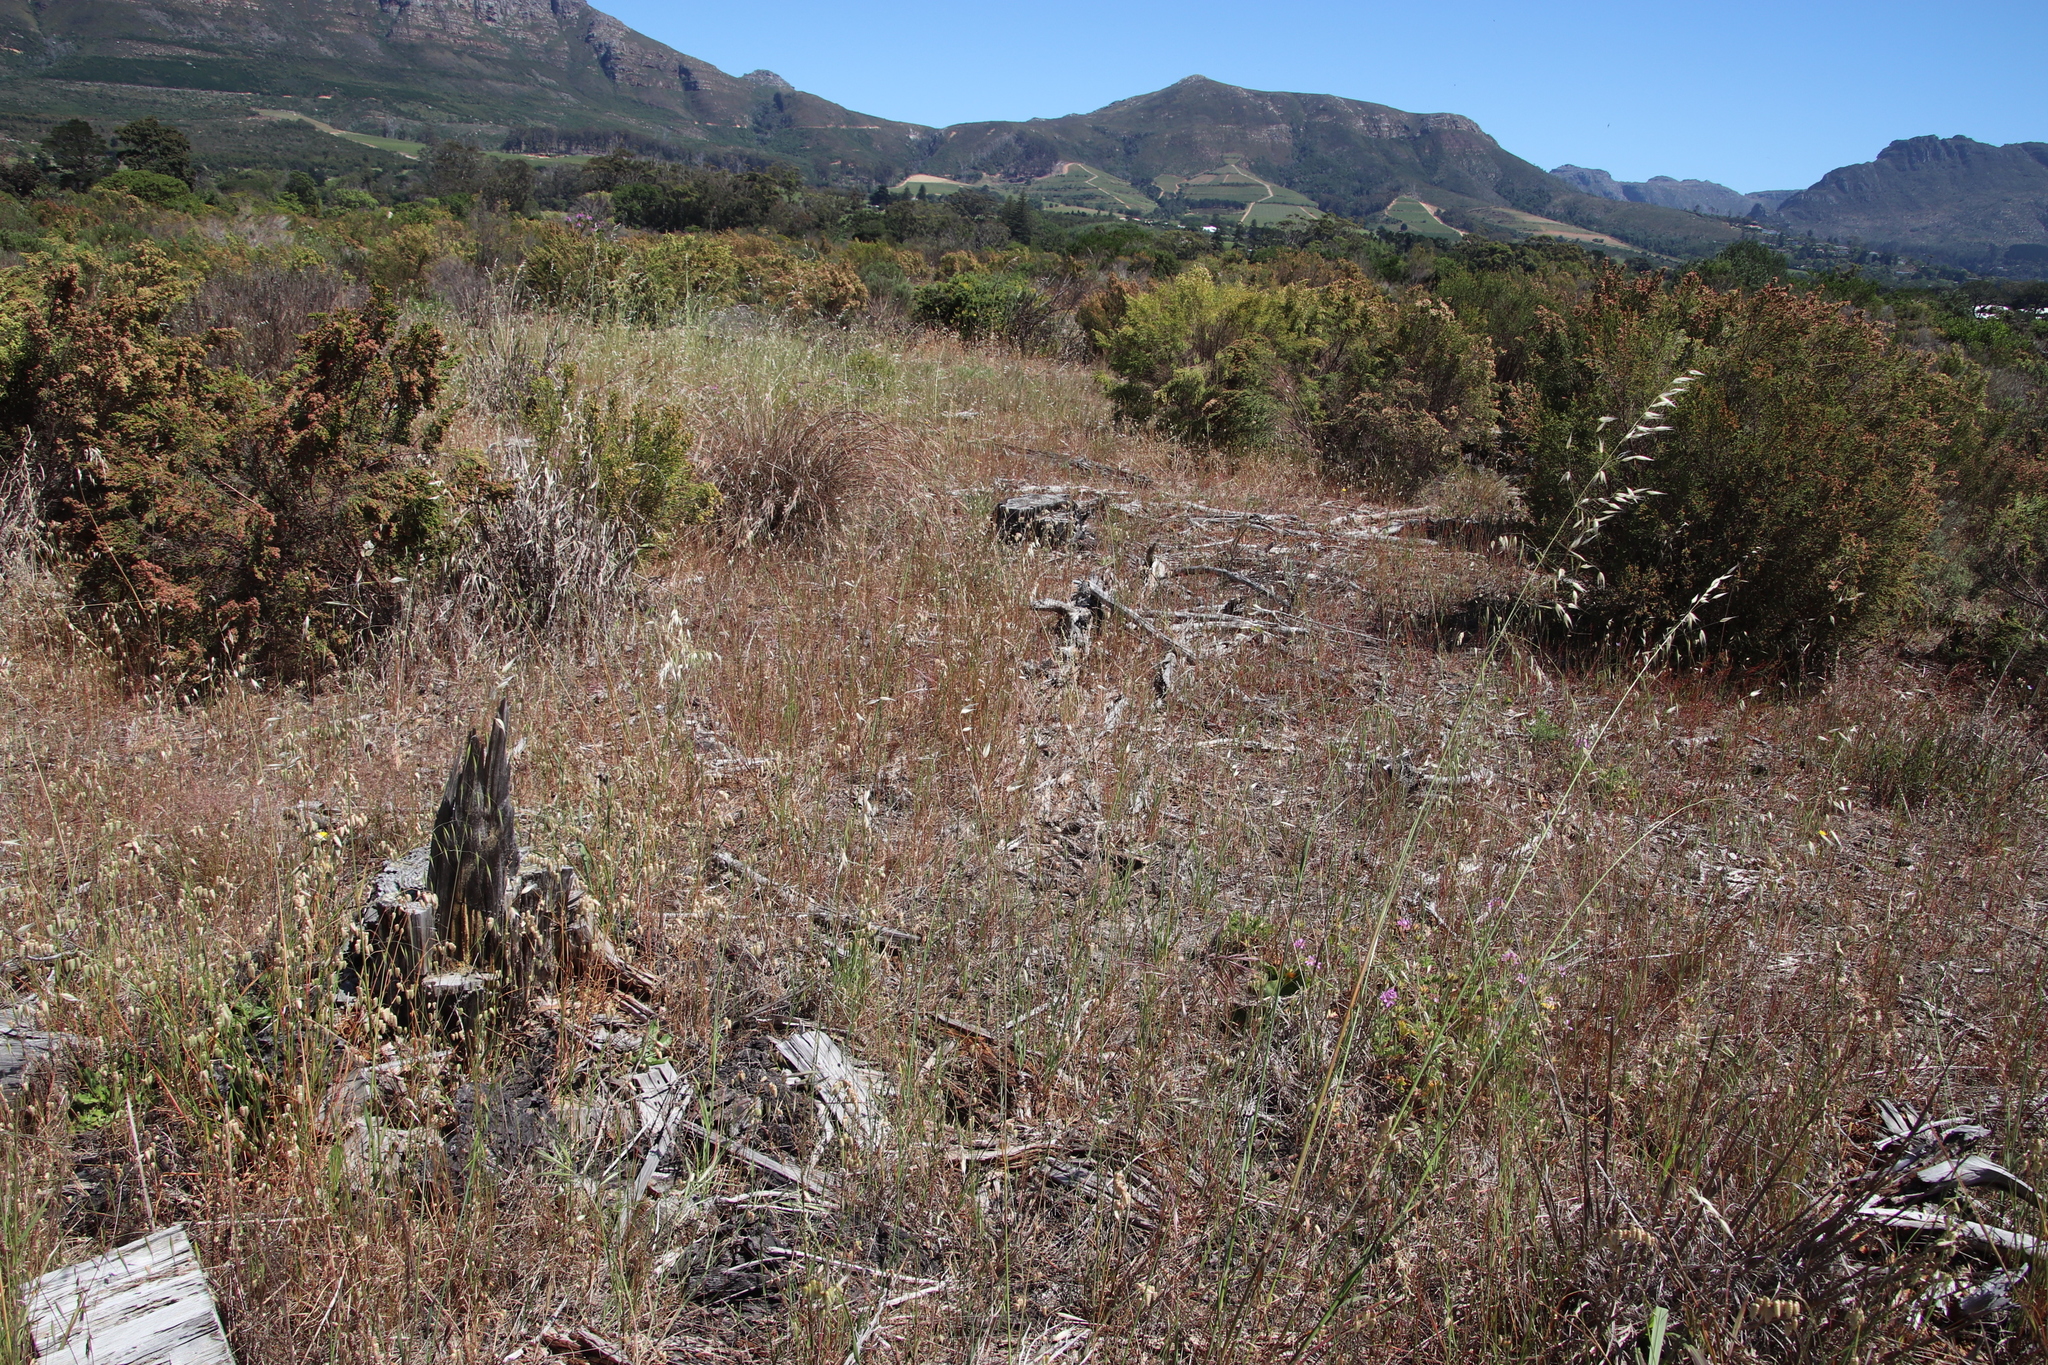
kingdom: Plantae
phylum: Tracheophyta
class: Liliopsida
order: Poales
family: Poaceae
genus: Avena
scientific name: Avena fatua
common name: Wild oat
